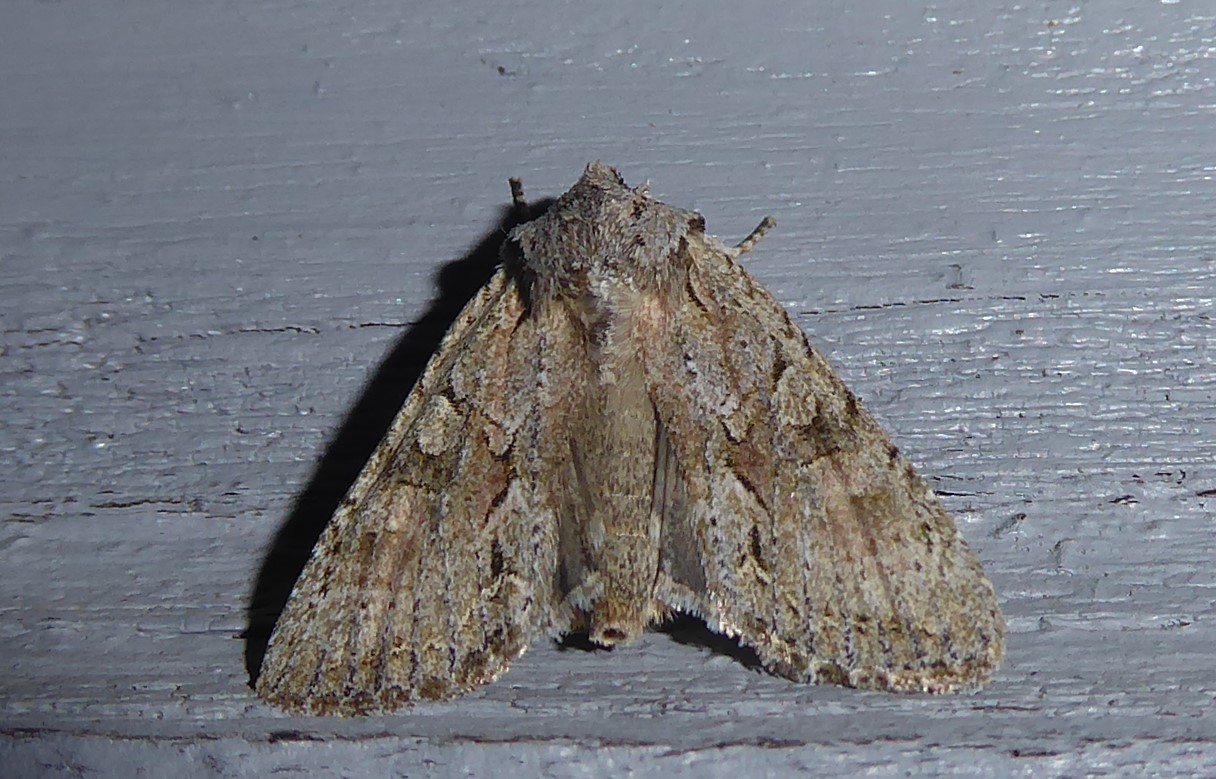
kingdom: Animalia
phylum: Arthropoda
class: Insecta
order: Lepidoptera
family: Noctuidae
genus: Ichneutica
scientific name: Ichneutica mutans
